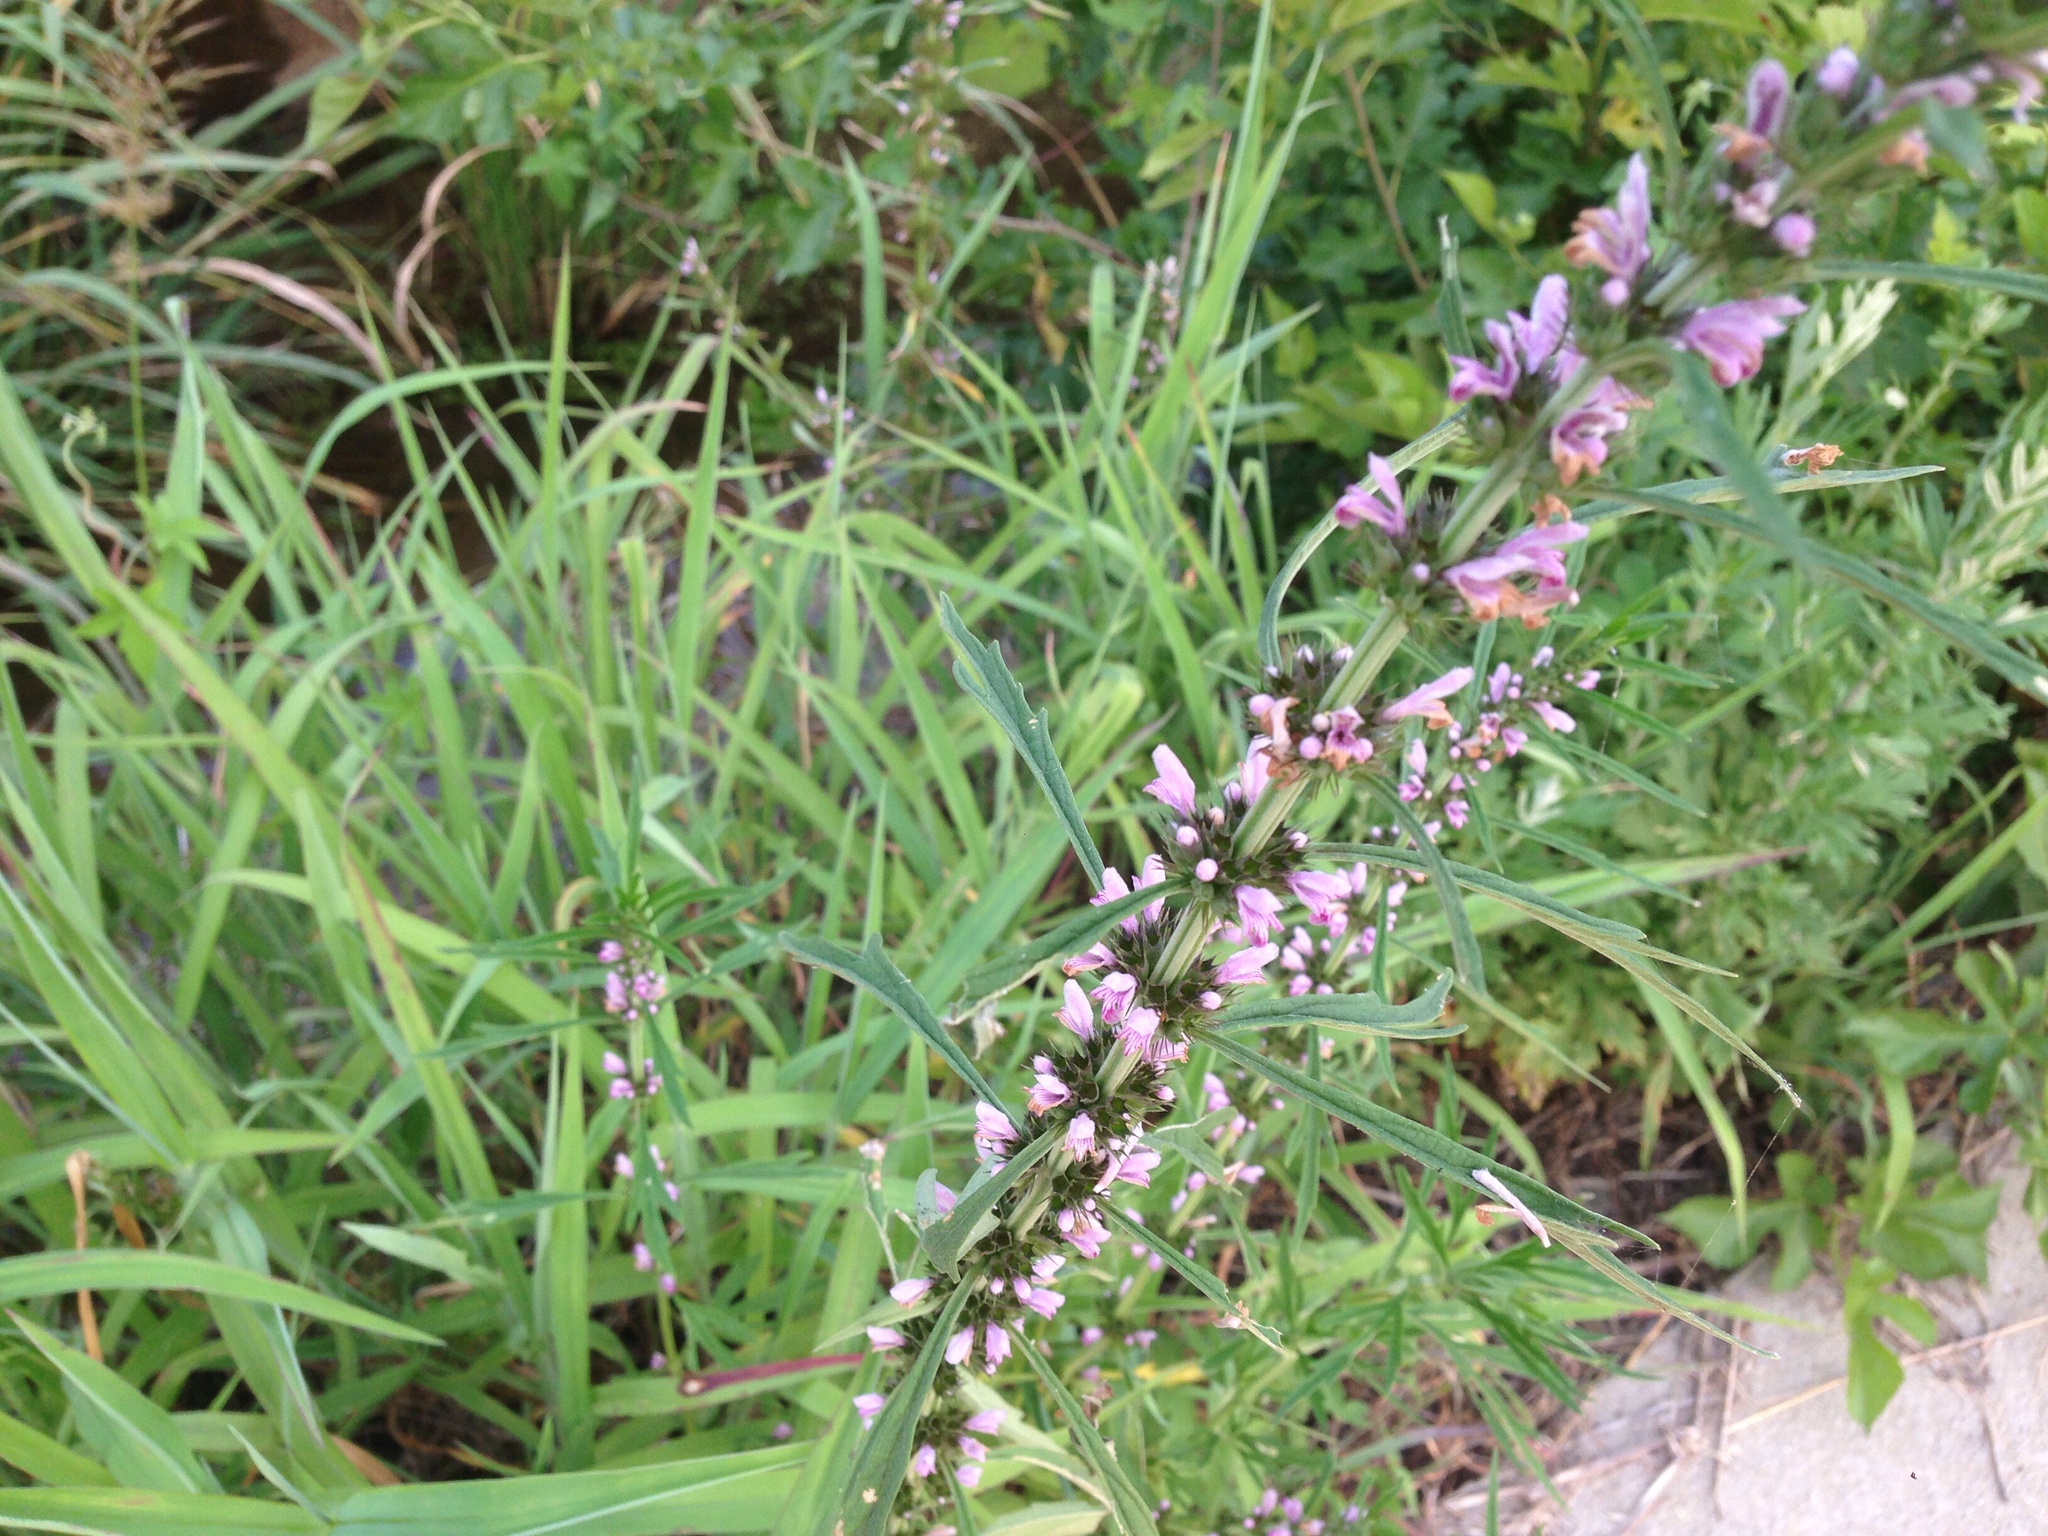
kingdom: Plantae
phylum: Tracheophyta
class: Magnoliopsida
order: Lamiales
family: Lamiaceae
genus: Leonurus
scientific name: Leonurus japonicus
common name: Honeyweed
